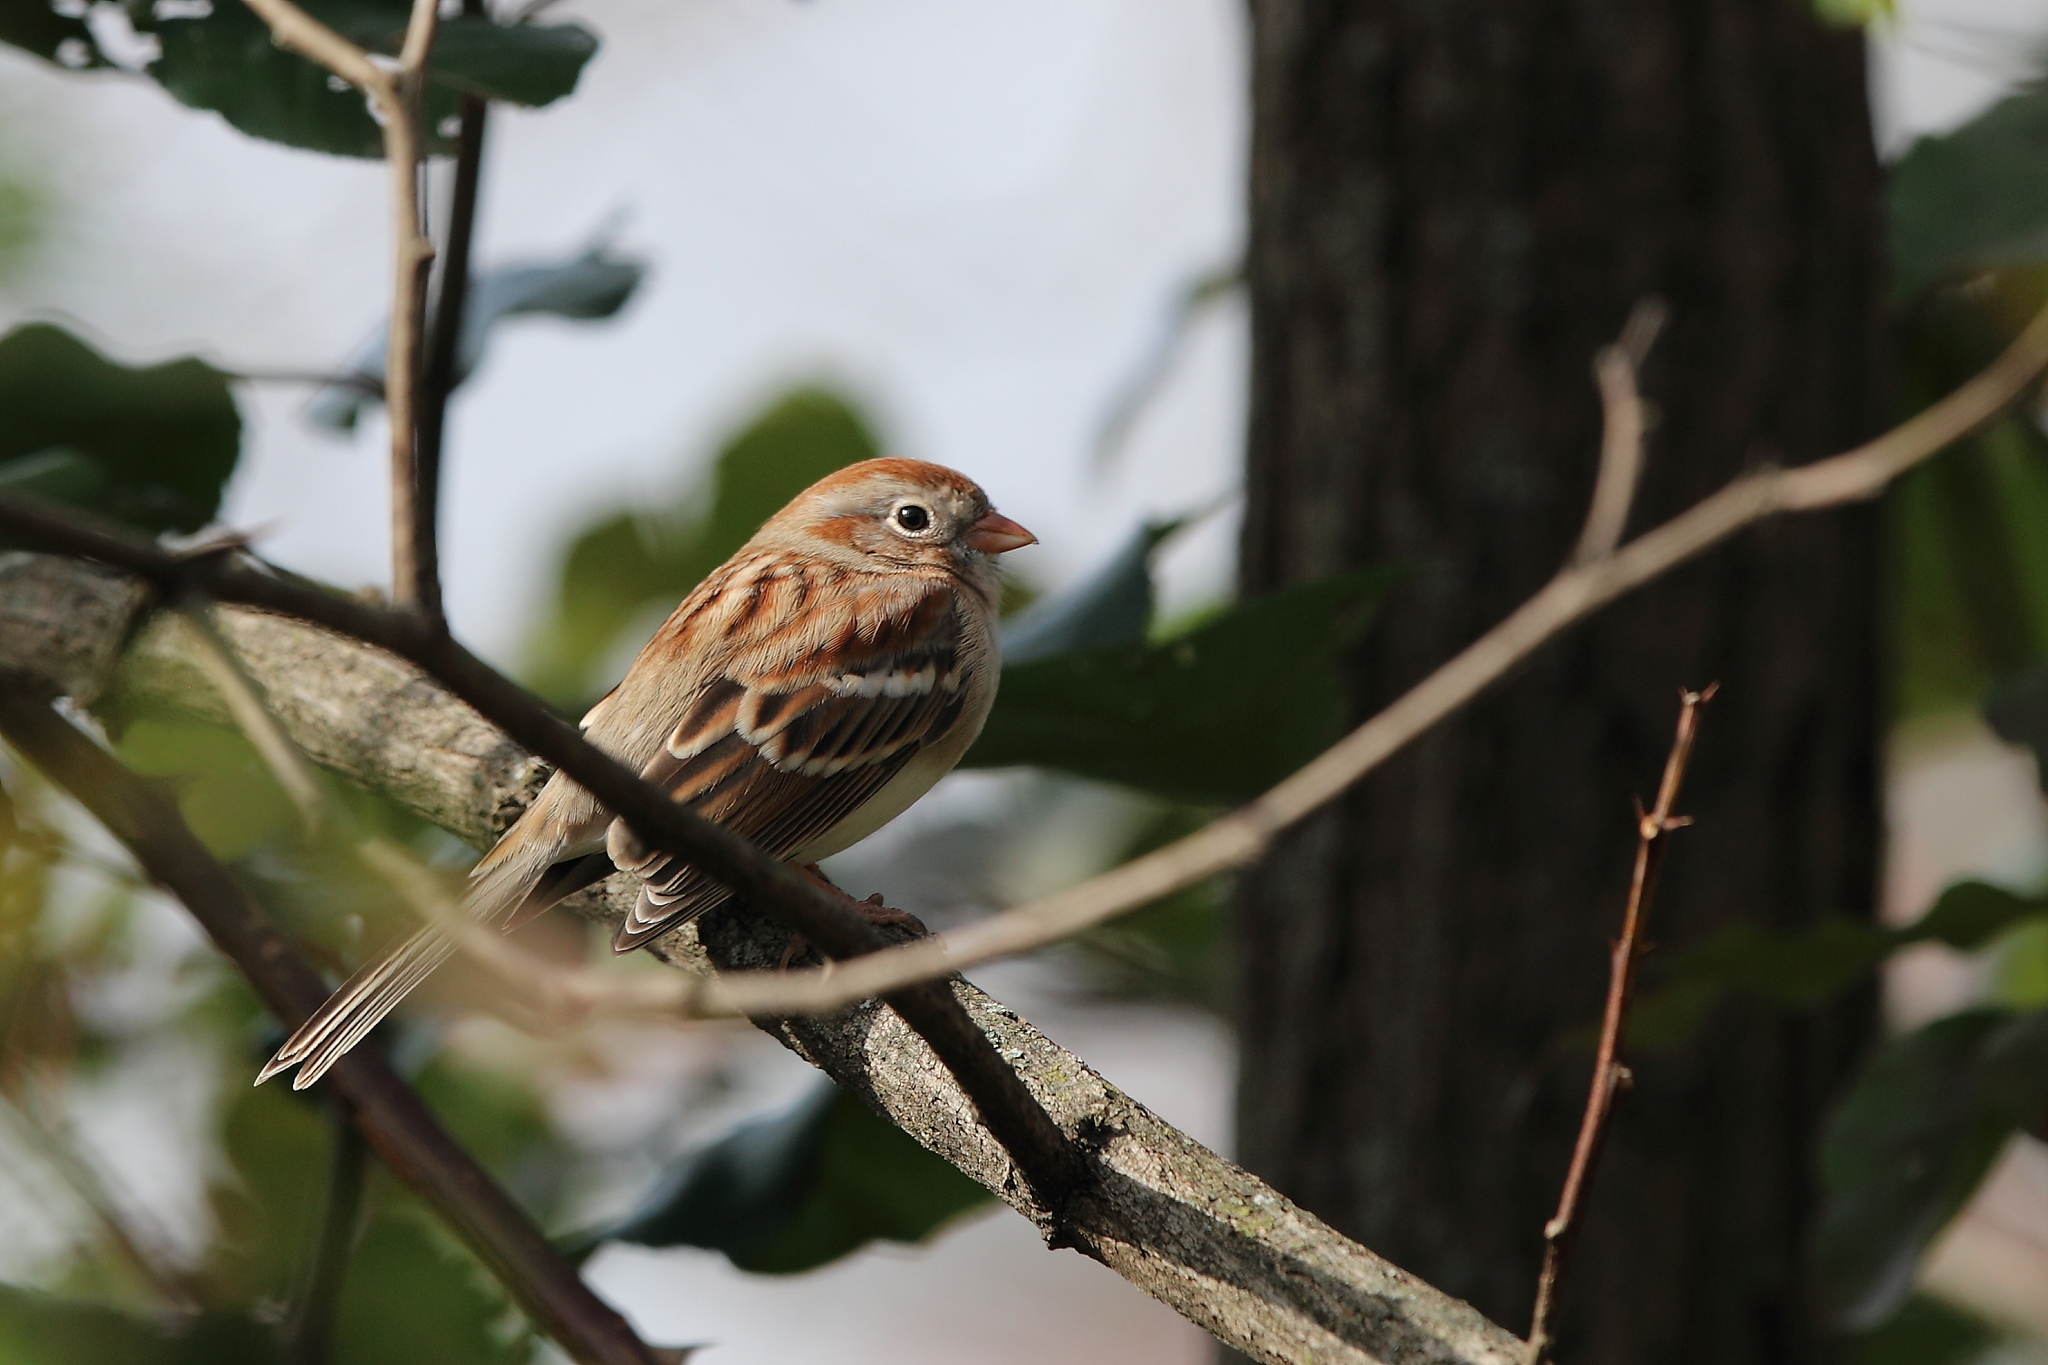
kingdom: Animalia
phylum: Chordata
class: Aves
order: Passeriformes
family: Passerellidae
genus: Spizella
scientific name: Spizella pusilla
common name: Field sparrow
